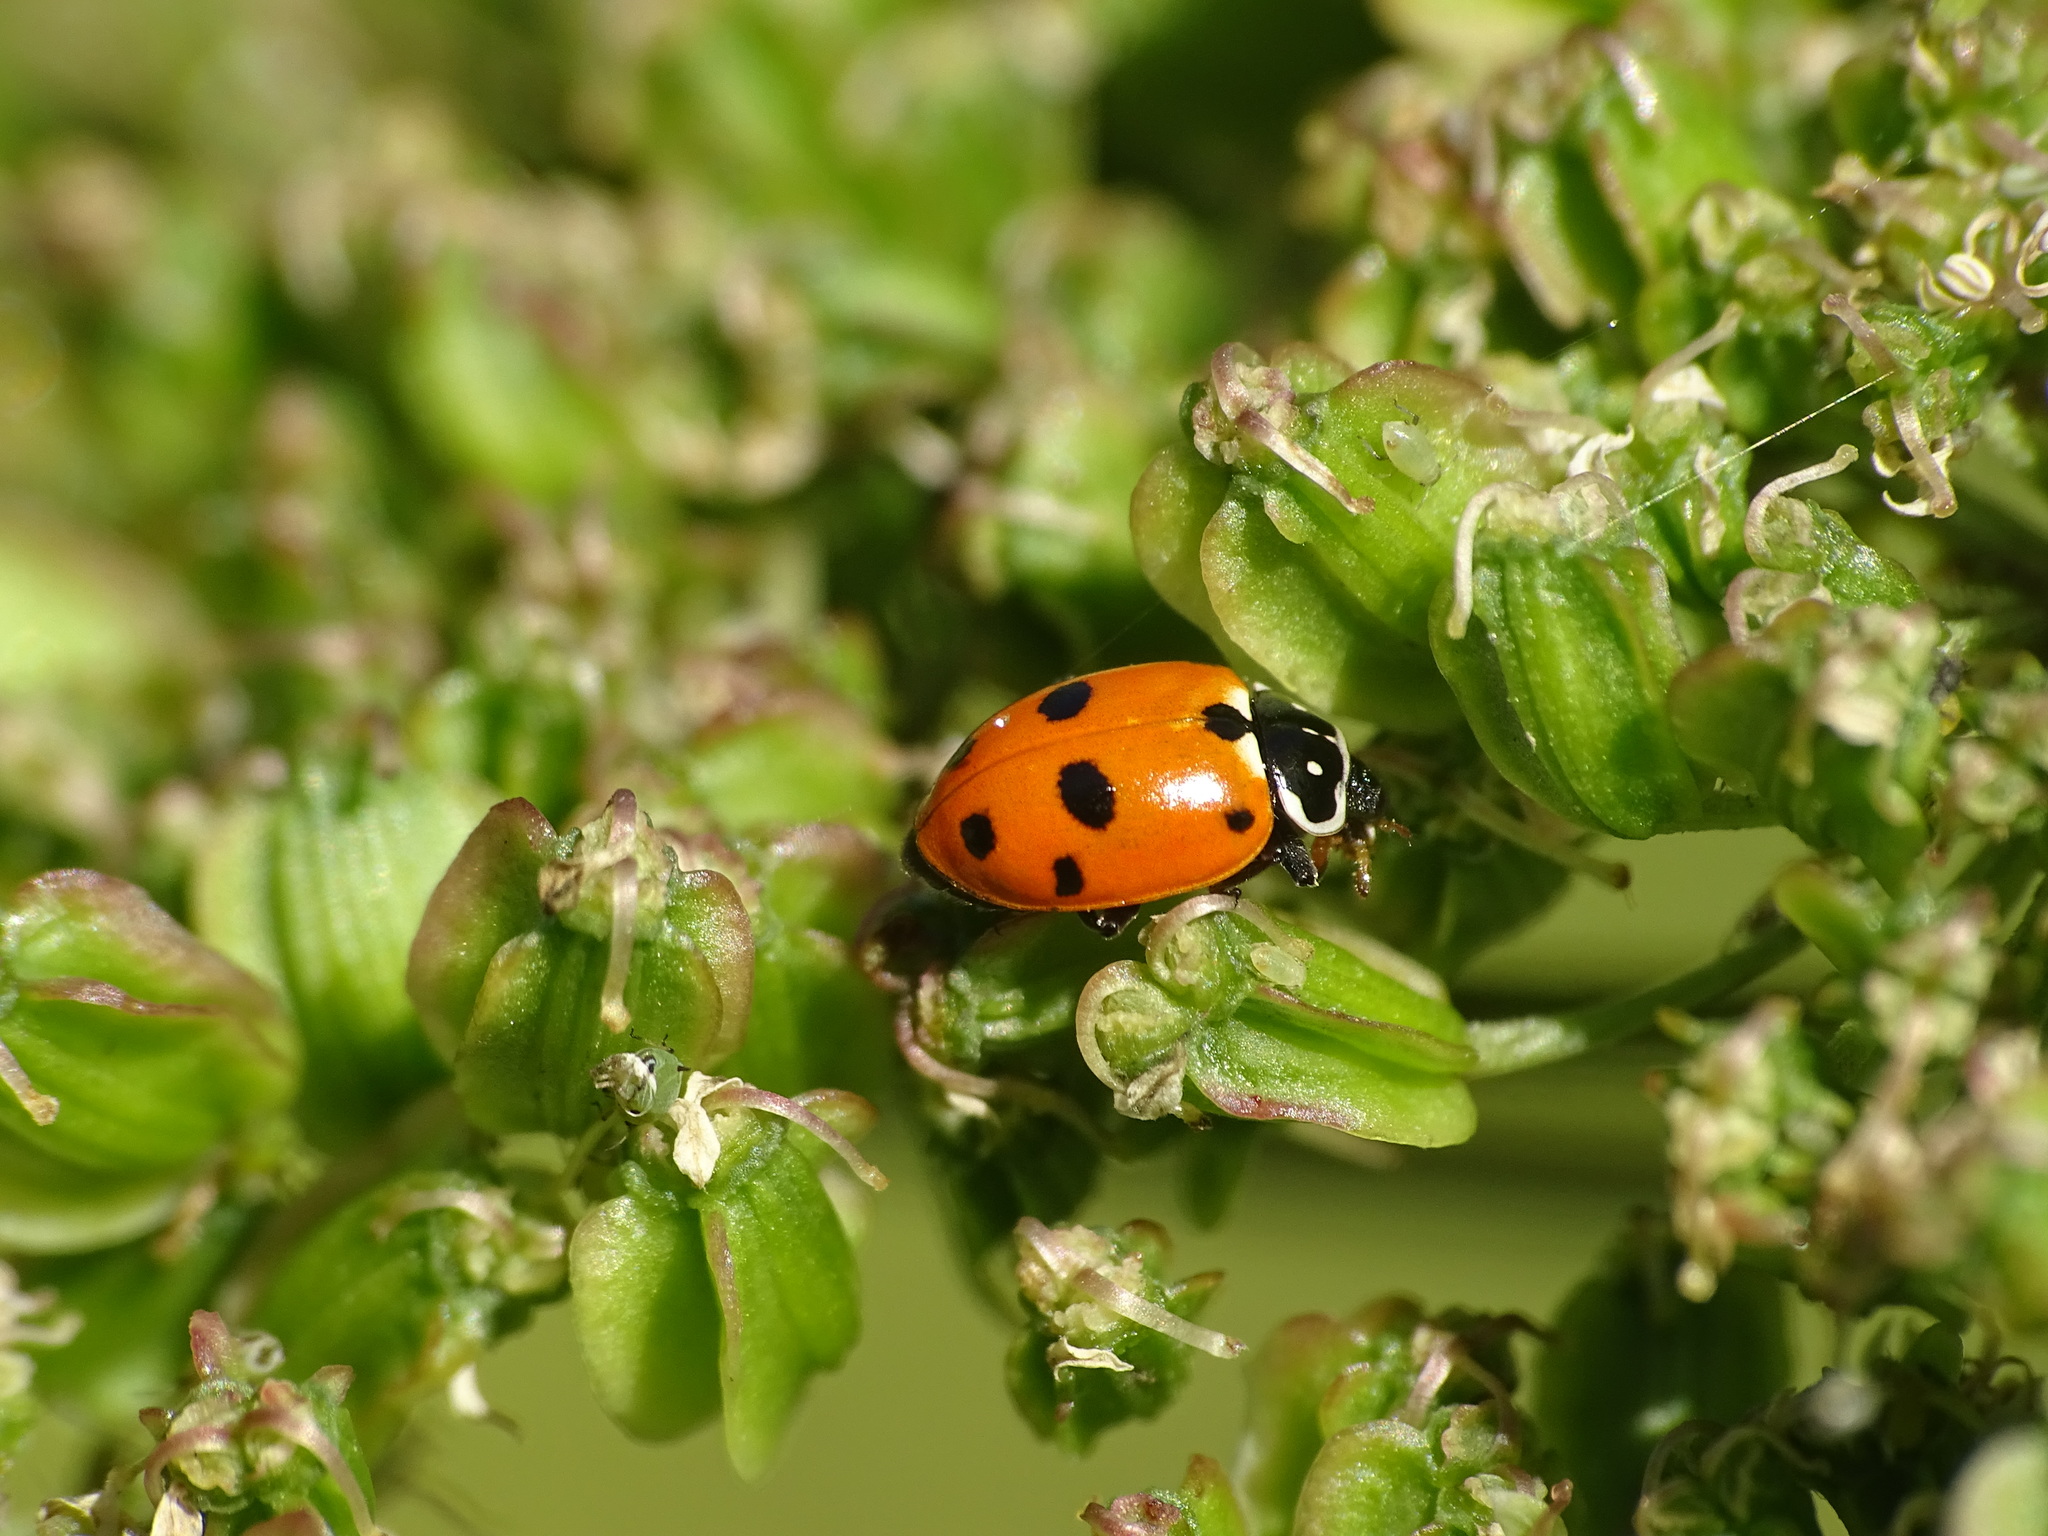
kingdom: Animalia
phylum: Arthropoda
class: Insecta
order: Coleoptera
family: Coccinellidae
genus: Hippodamia
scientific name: Hippodamia variegata
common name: Ladybird beetle
